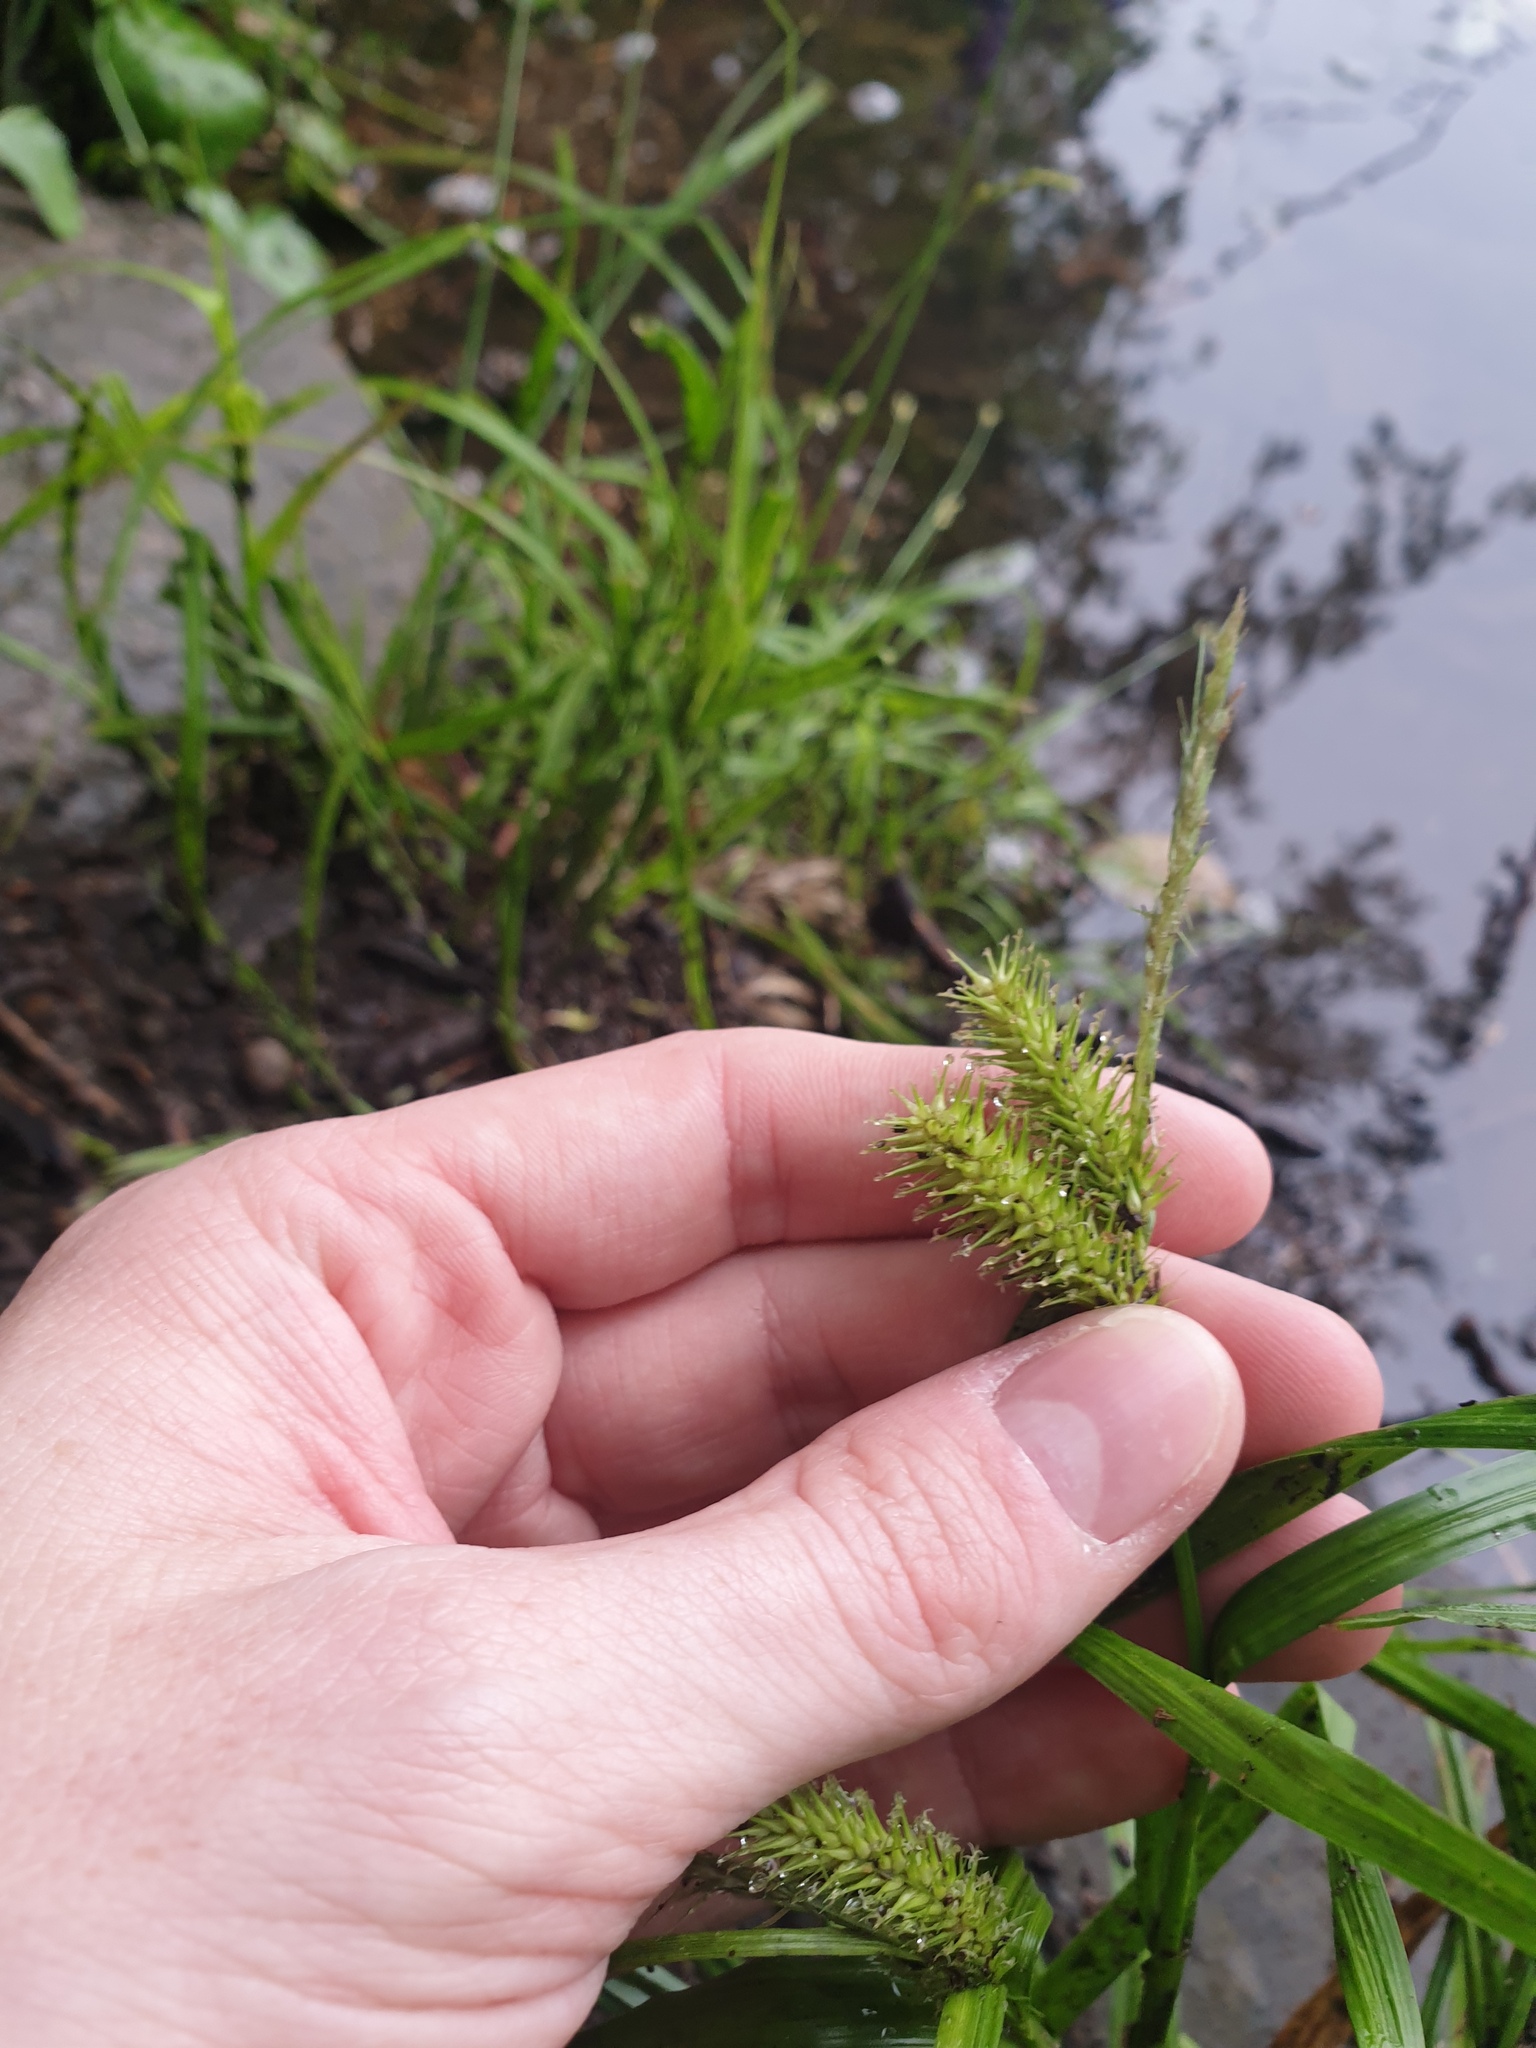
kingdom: Plantae
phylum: Tracheophyta
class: Liliopsida
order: Poales
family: Cyperaceae
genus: Carex
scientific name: Carex lurida
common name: Sallow sedge
